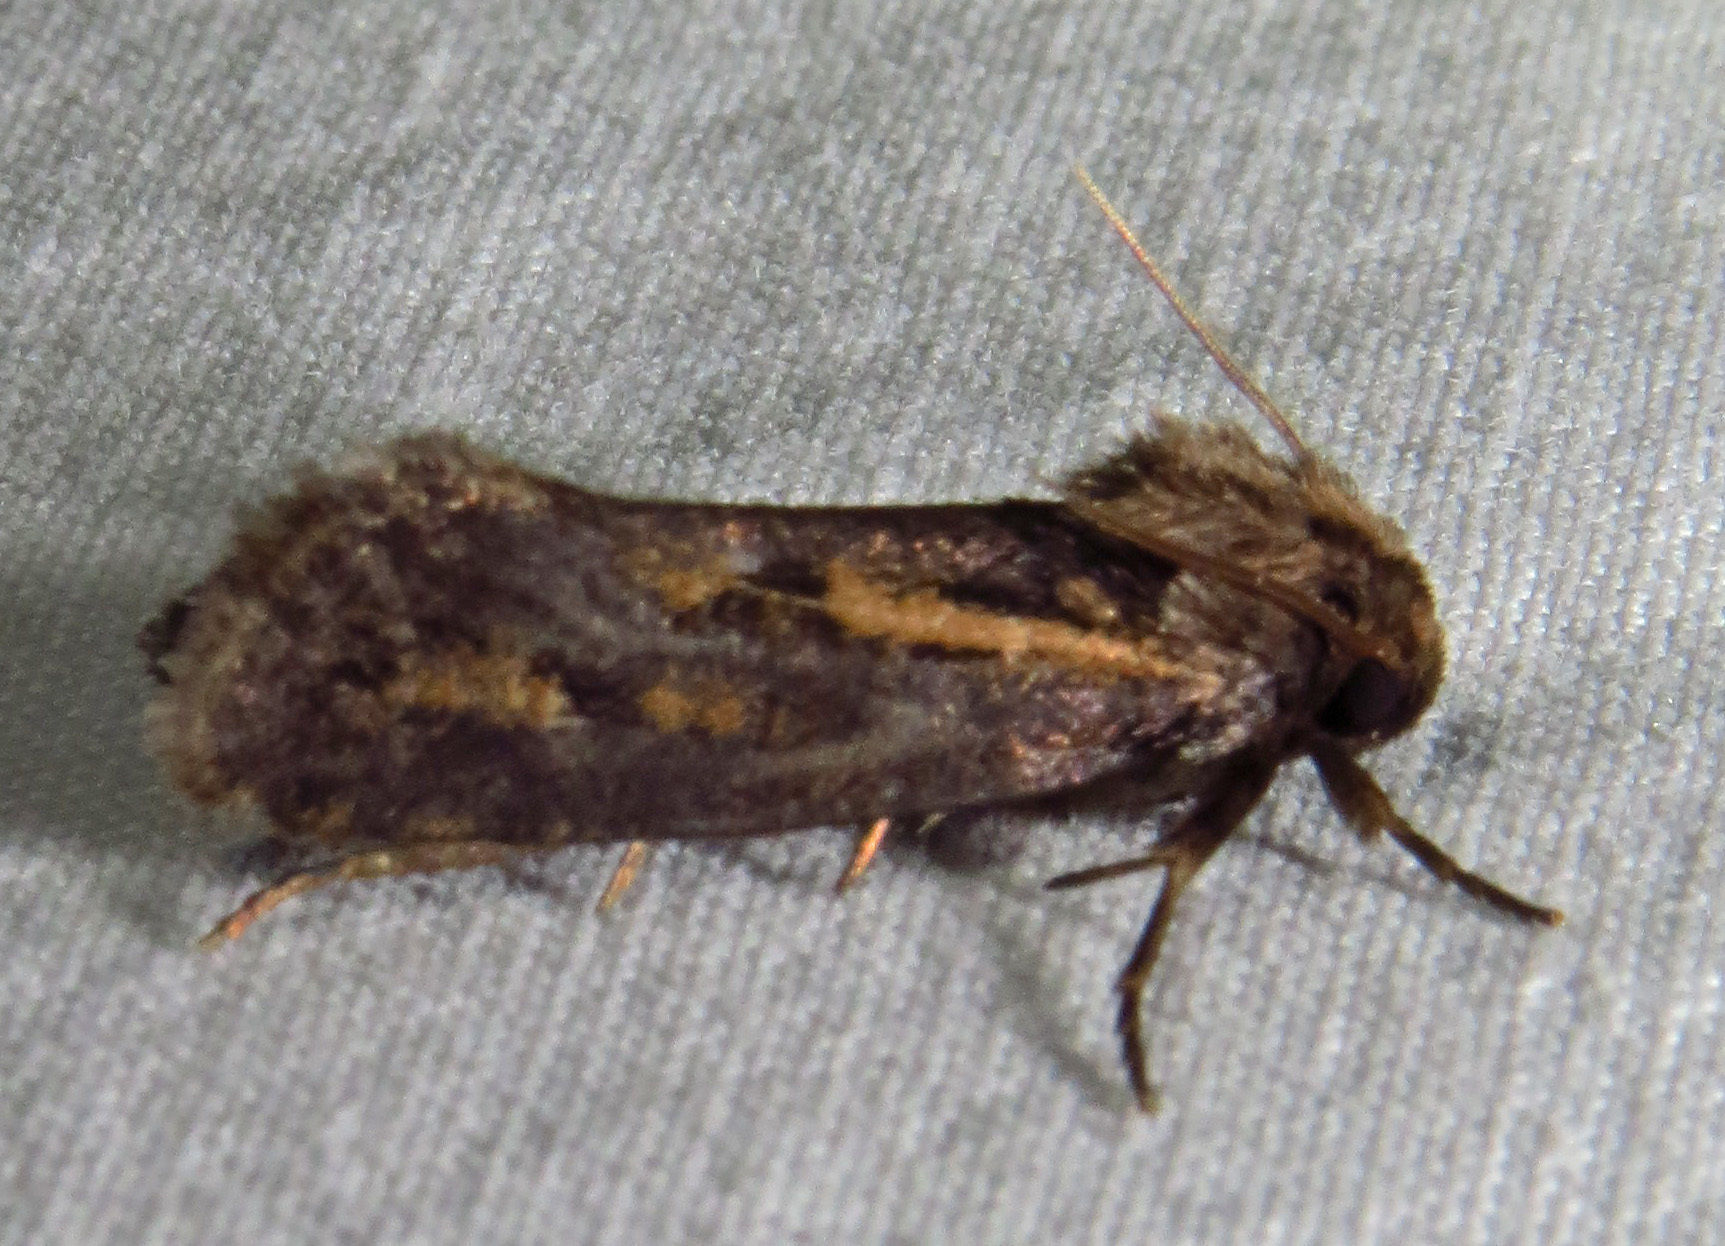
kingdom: Animalia
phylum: Arthropoda
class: Insecta
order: Lepidoptera
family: Tineidae
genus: Acrolophus
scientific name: Acrolophus popeanella
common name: Clemens' grass tubeworm moth
